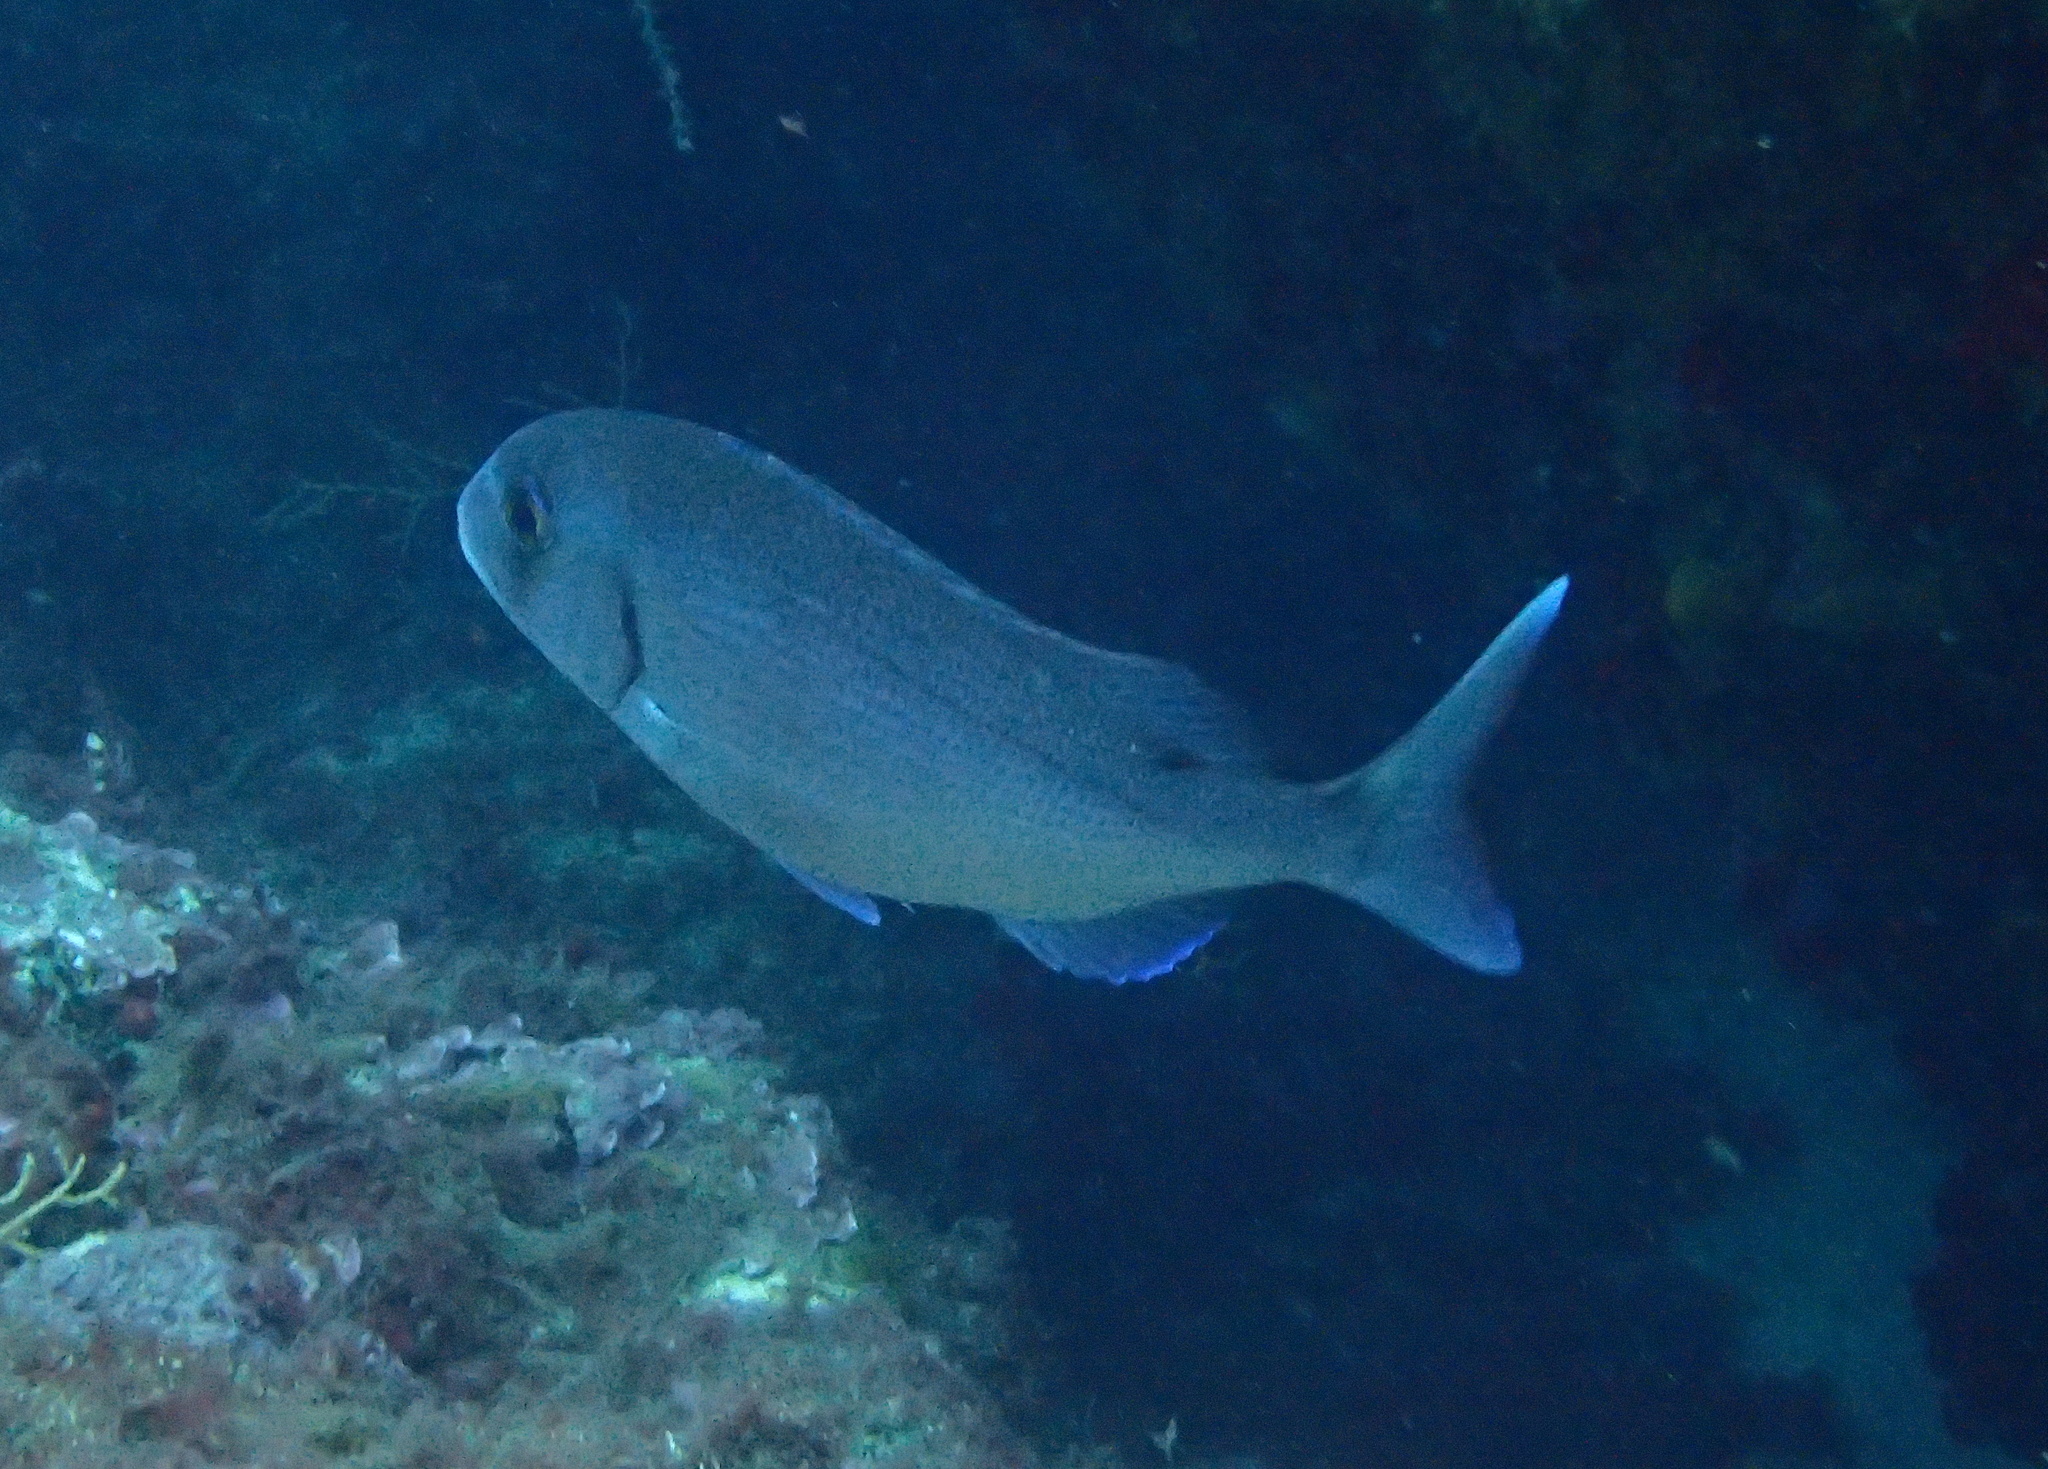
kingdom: Animalia
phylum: Chordata
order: Perciformes
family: Sparidae
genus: Pagrus
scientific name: Pagrus pagrus
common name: Red porgy
